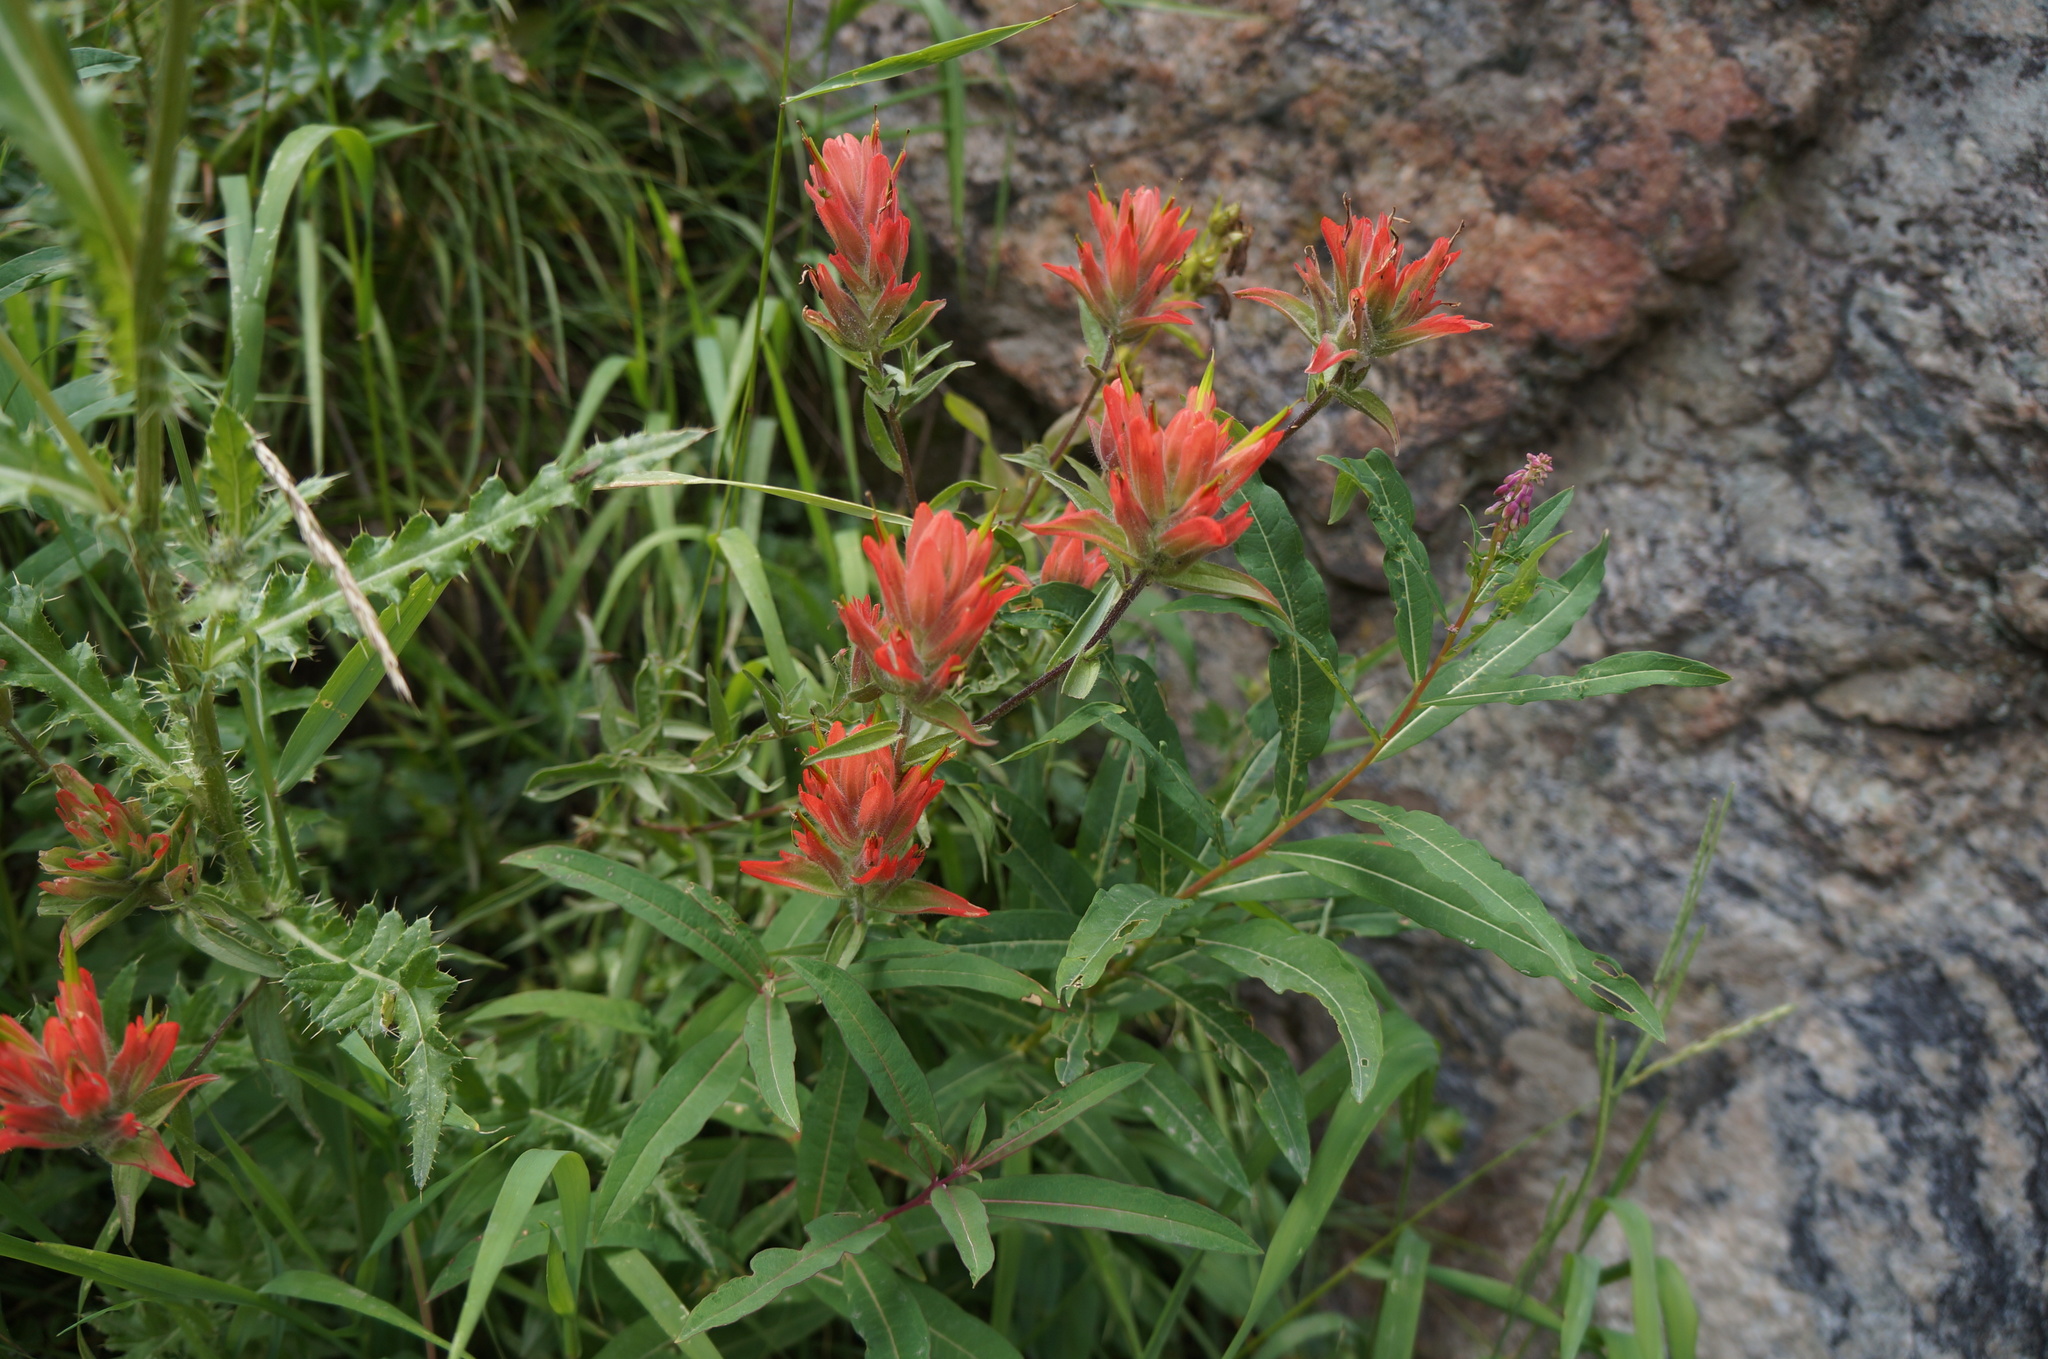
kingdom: Plantae
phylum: Tracheophyta
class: Magnoliopsida
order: Lamiales
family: Orobanchaceae
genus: Castilleja
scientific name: Castilleja miniata
